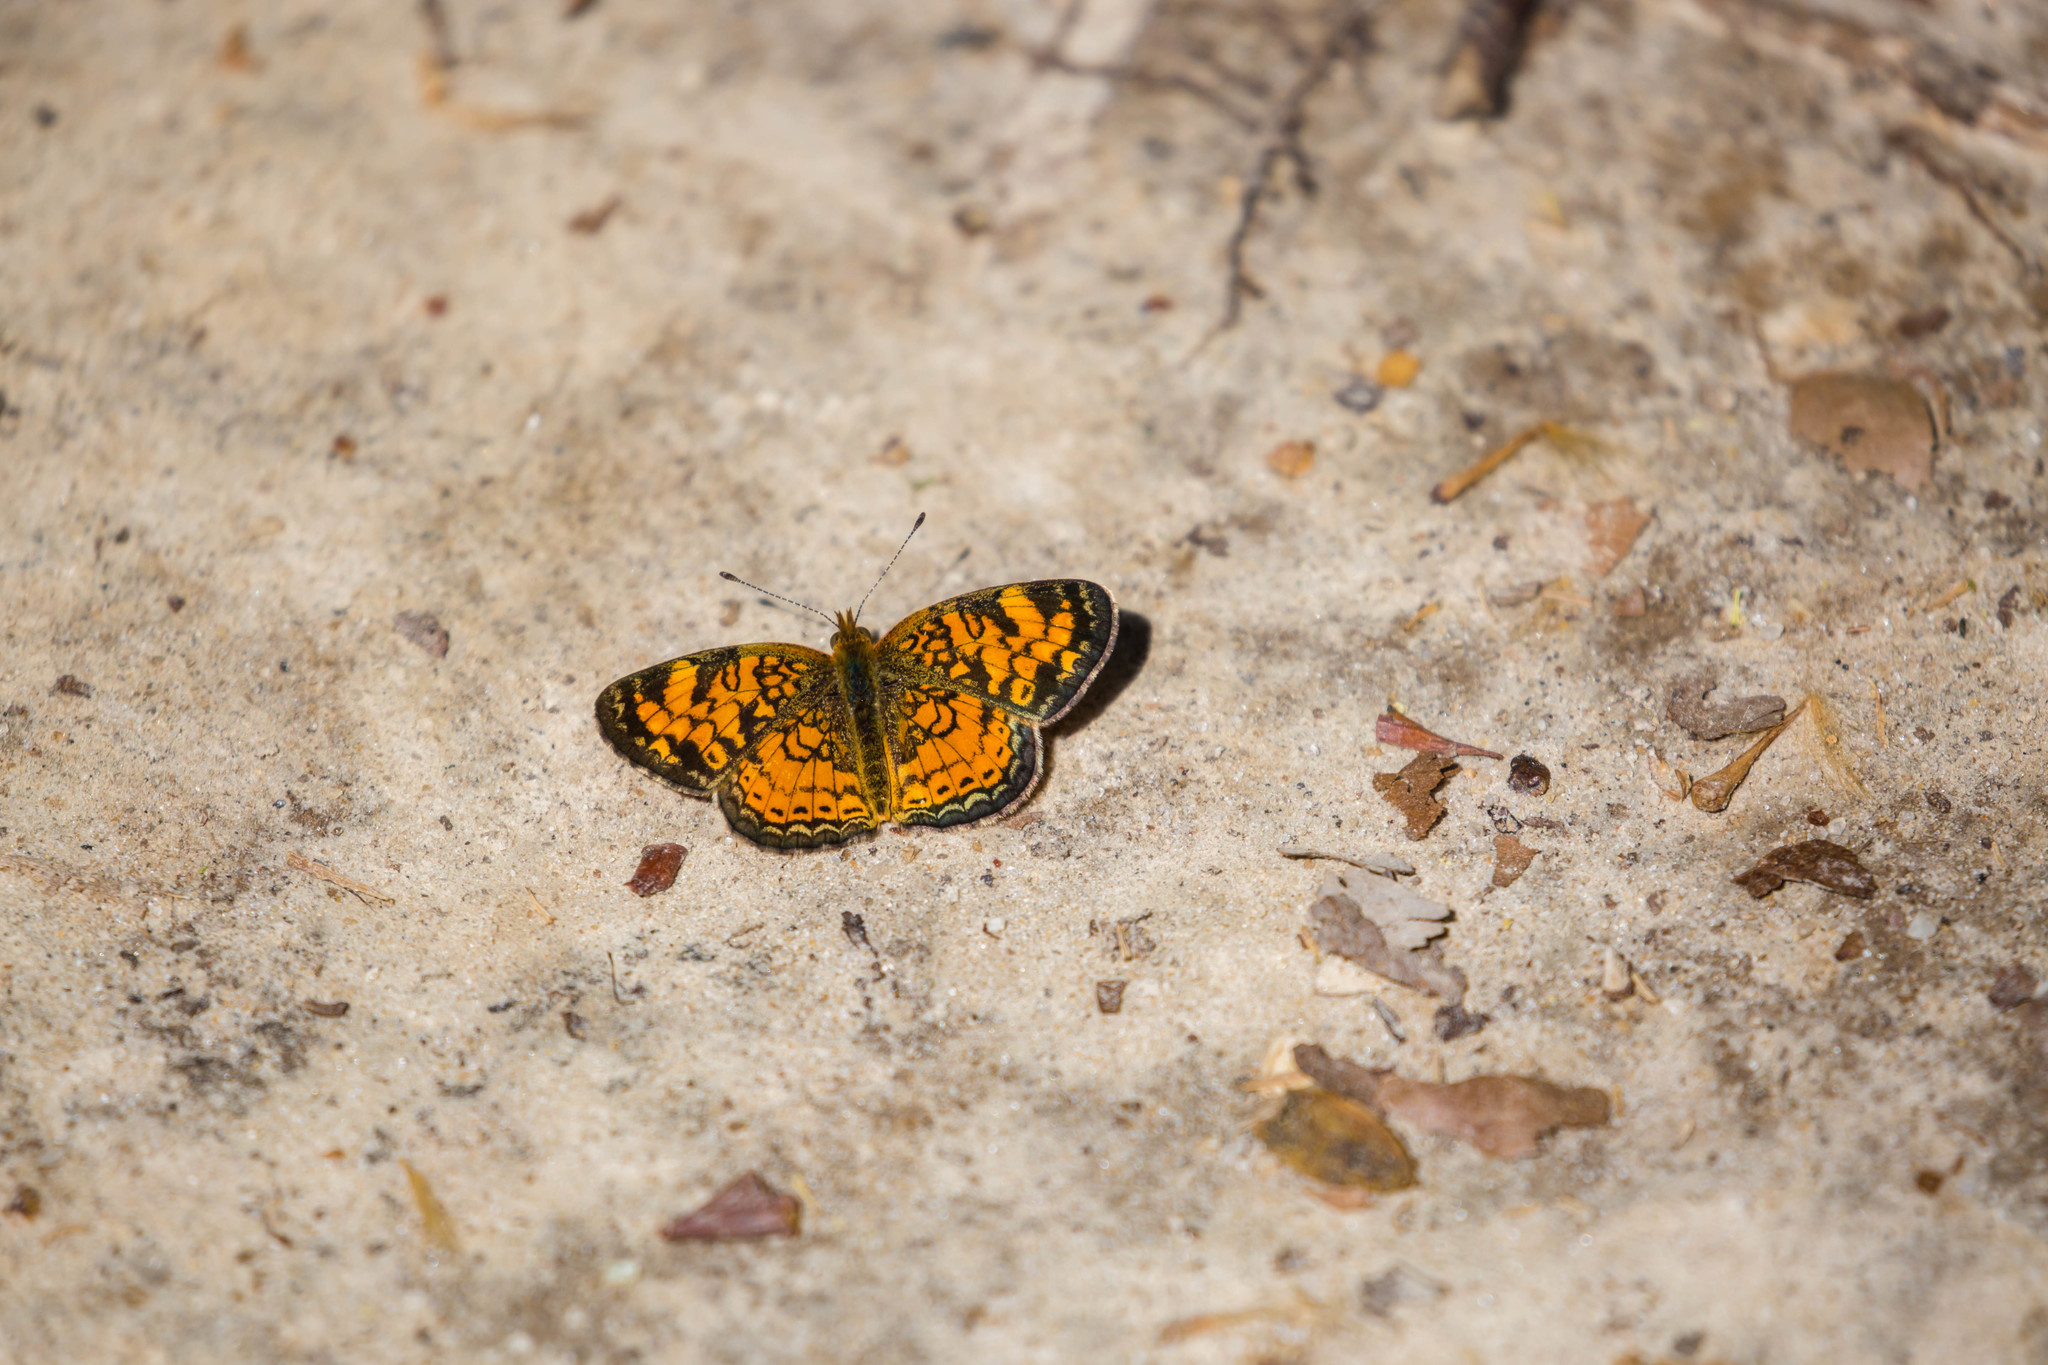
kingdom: Animalia
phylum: Arthropoda
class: Insecta
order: Lepidoptera
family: Nymphalidae
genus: Phyciodes
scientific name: Phyciodes tharos
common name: Pearl crescent
